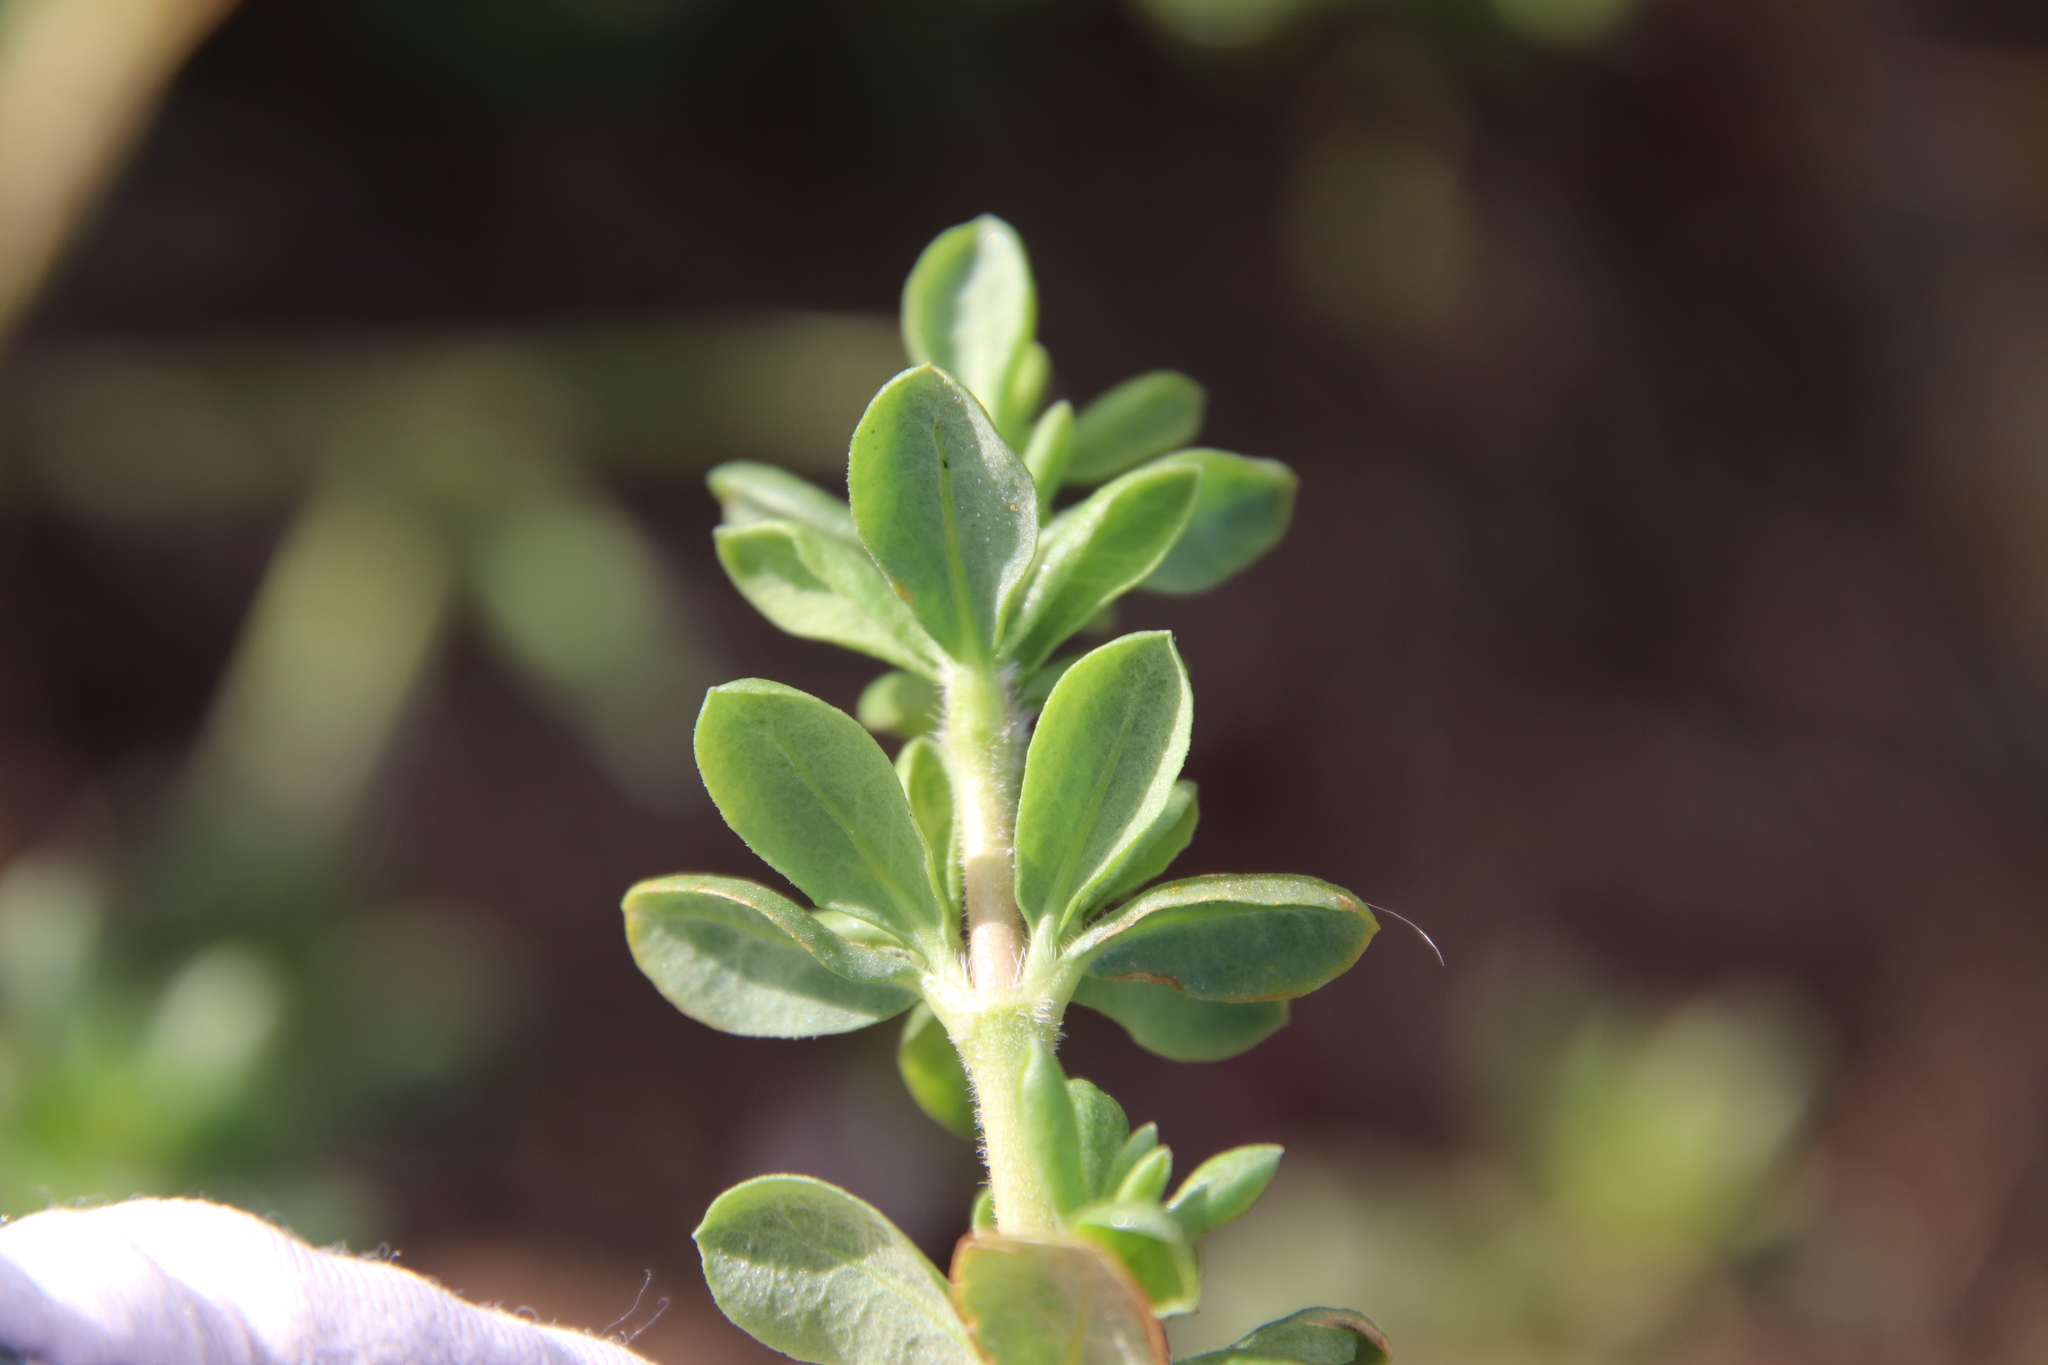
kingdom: Plantae
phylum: Tracheophyta
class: Magnoliopsida
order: Caryophyllales
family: Frankeniaceae
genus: Frankenia
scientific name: Frankenia salina
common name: Alkali seaheath
